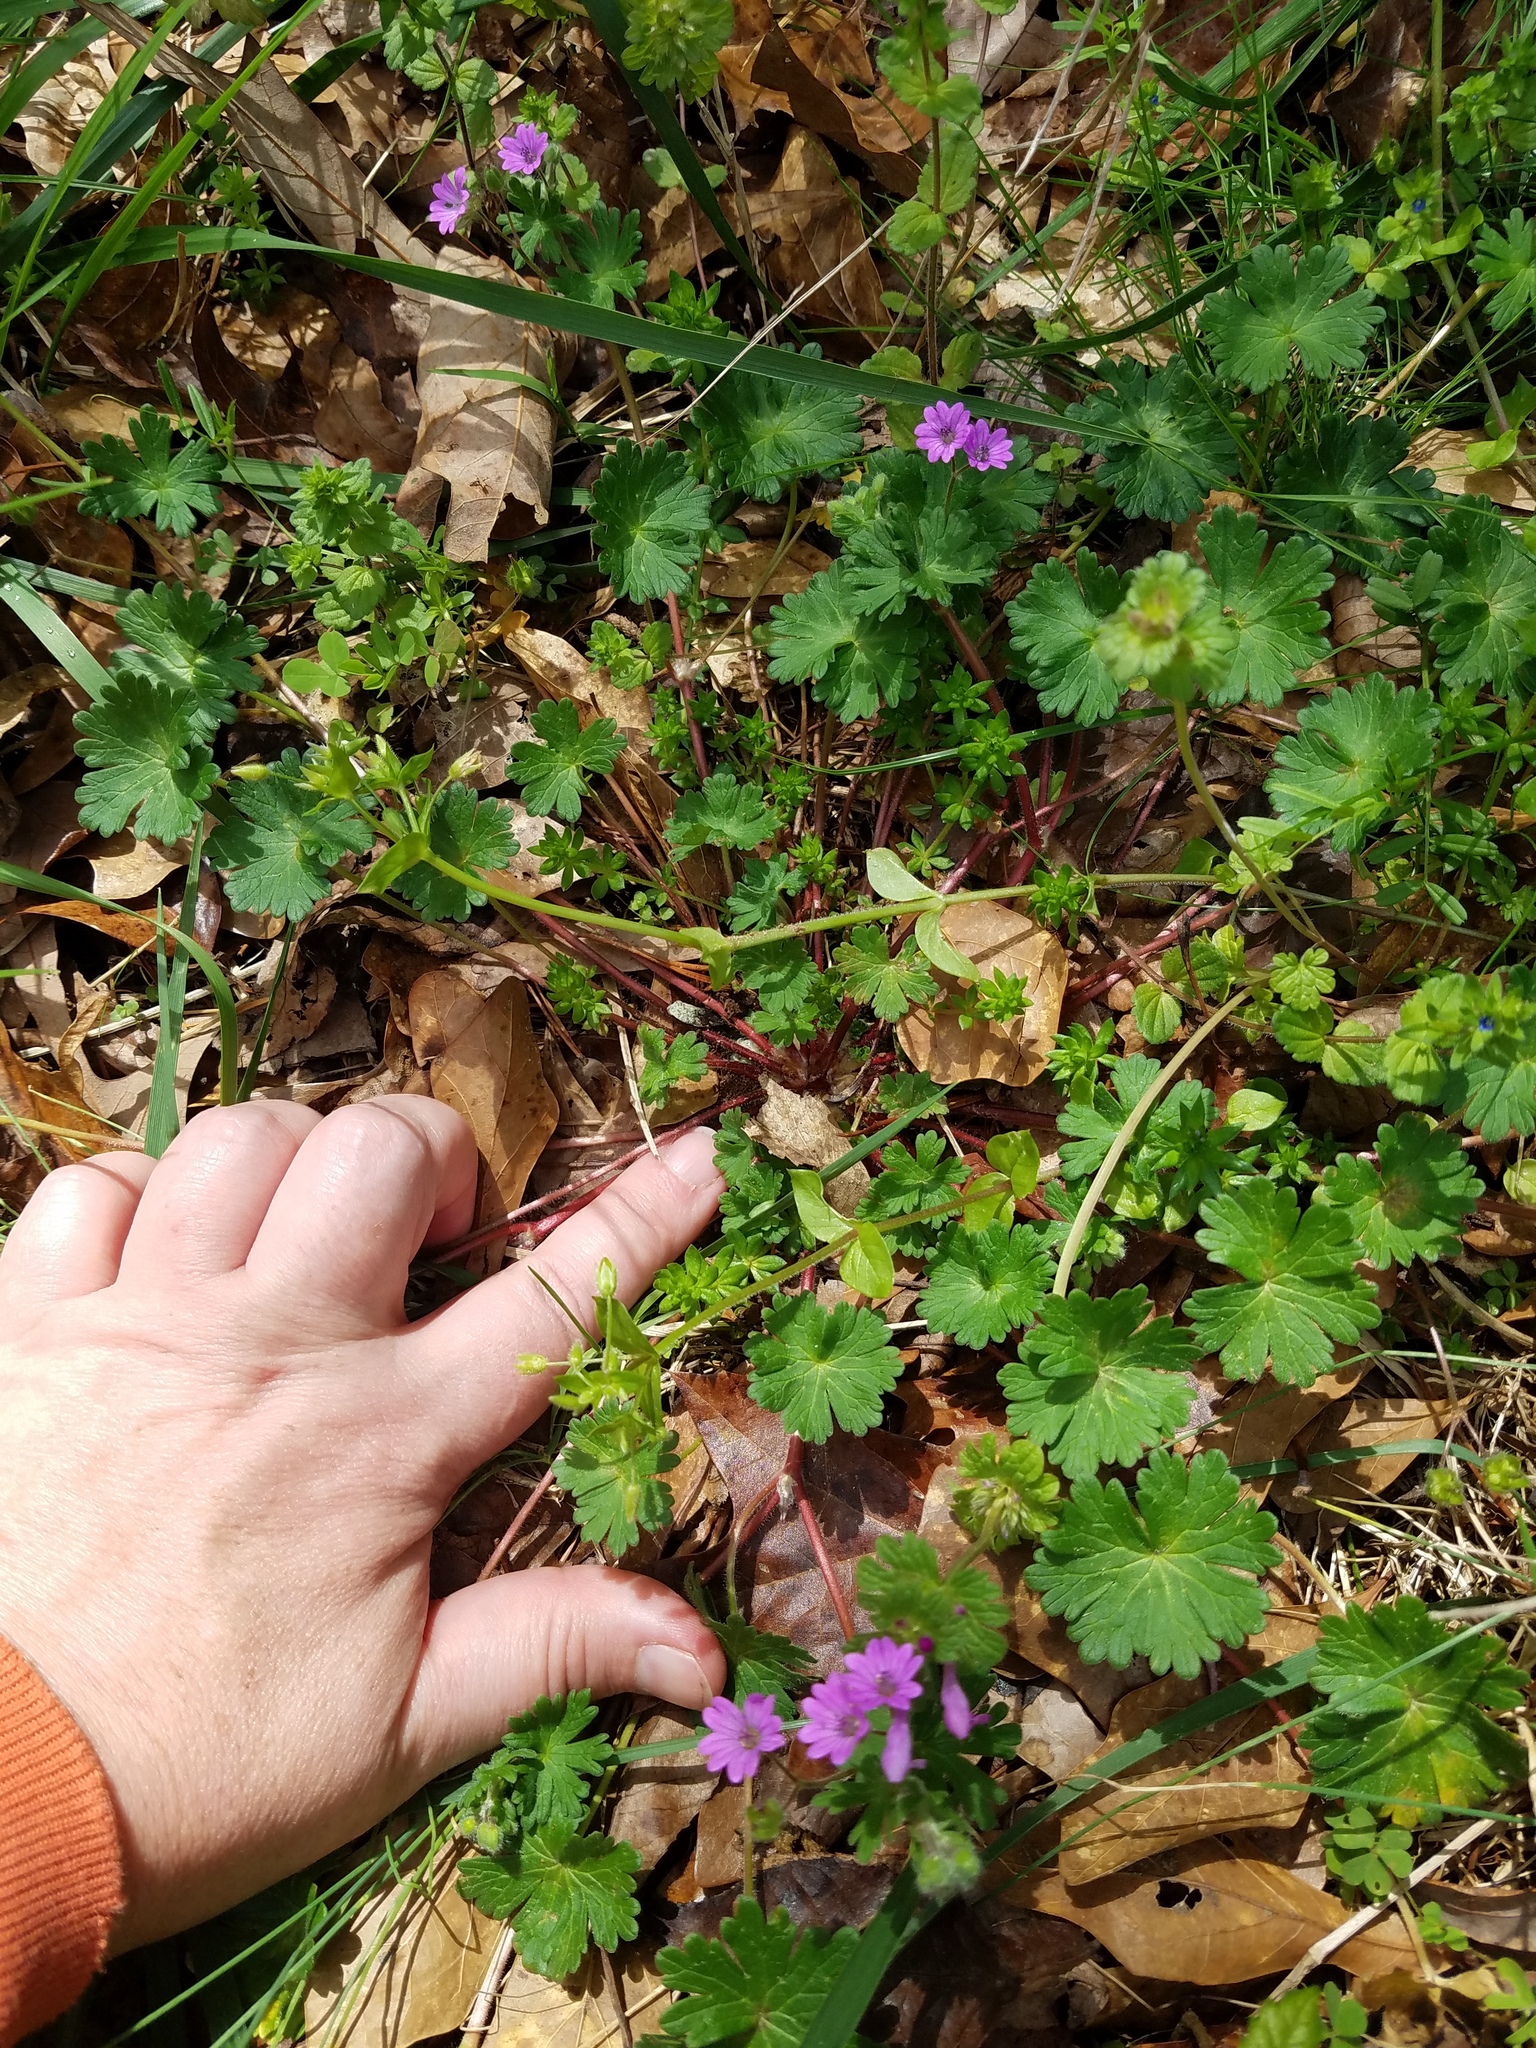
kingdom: Plantae
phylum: Tracheophyta
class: Magnoliopsida
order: Geraniales
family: Geraniaceae
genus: Geranium
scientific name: Geranium molle
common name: Dove's-foot crane's-bill
